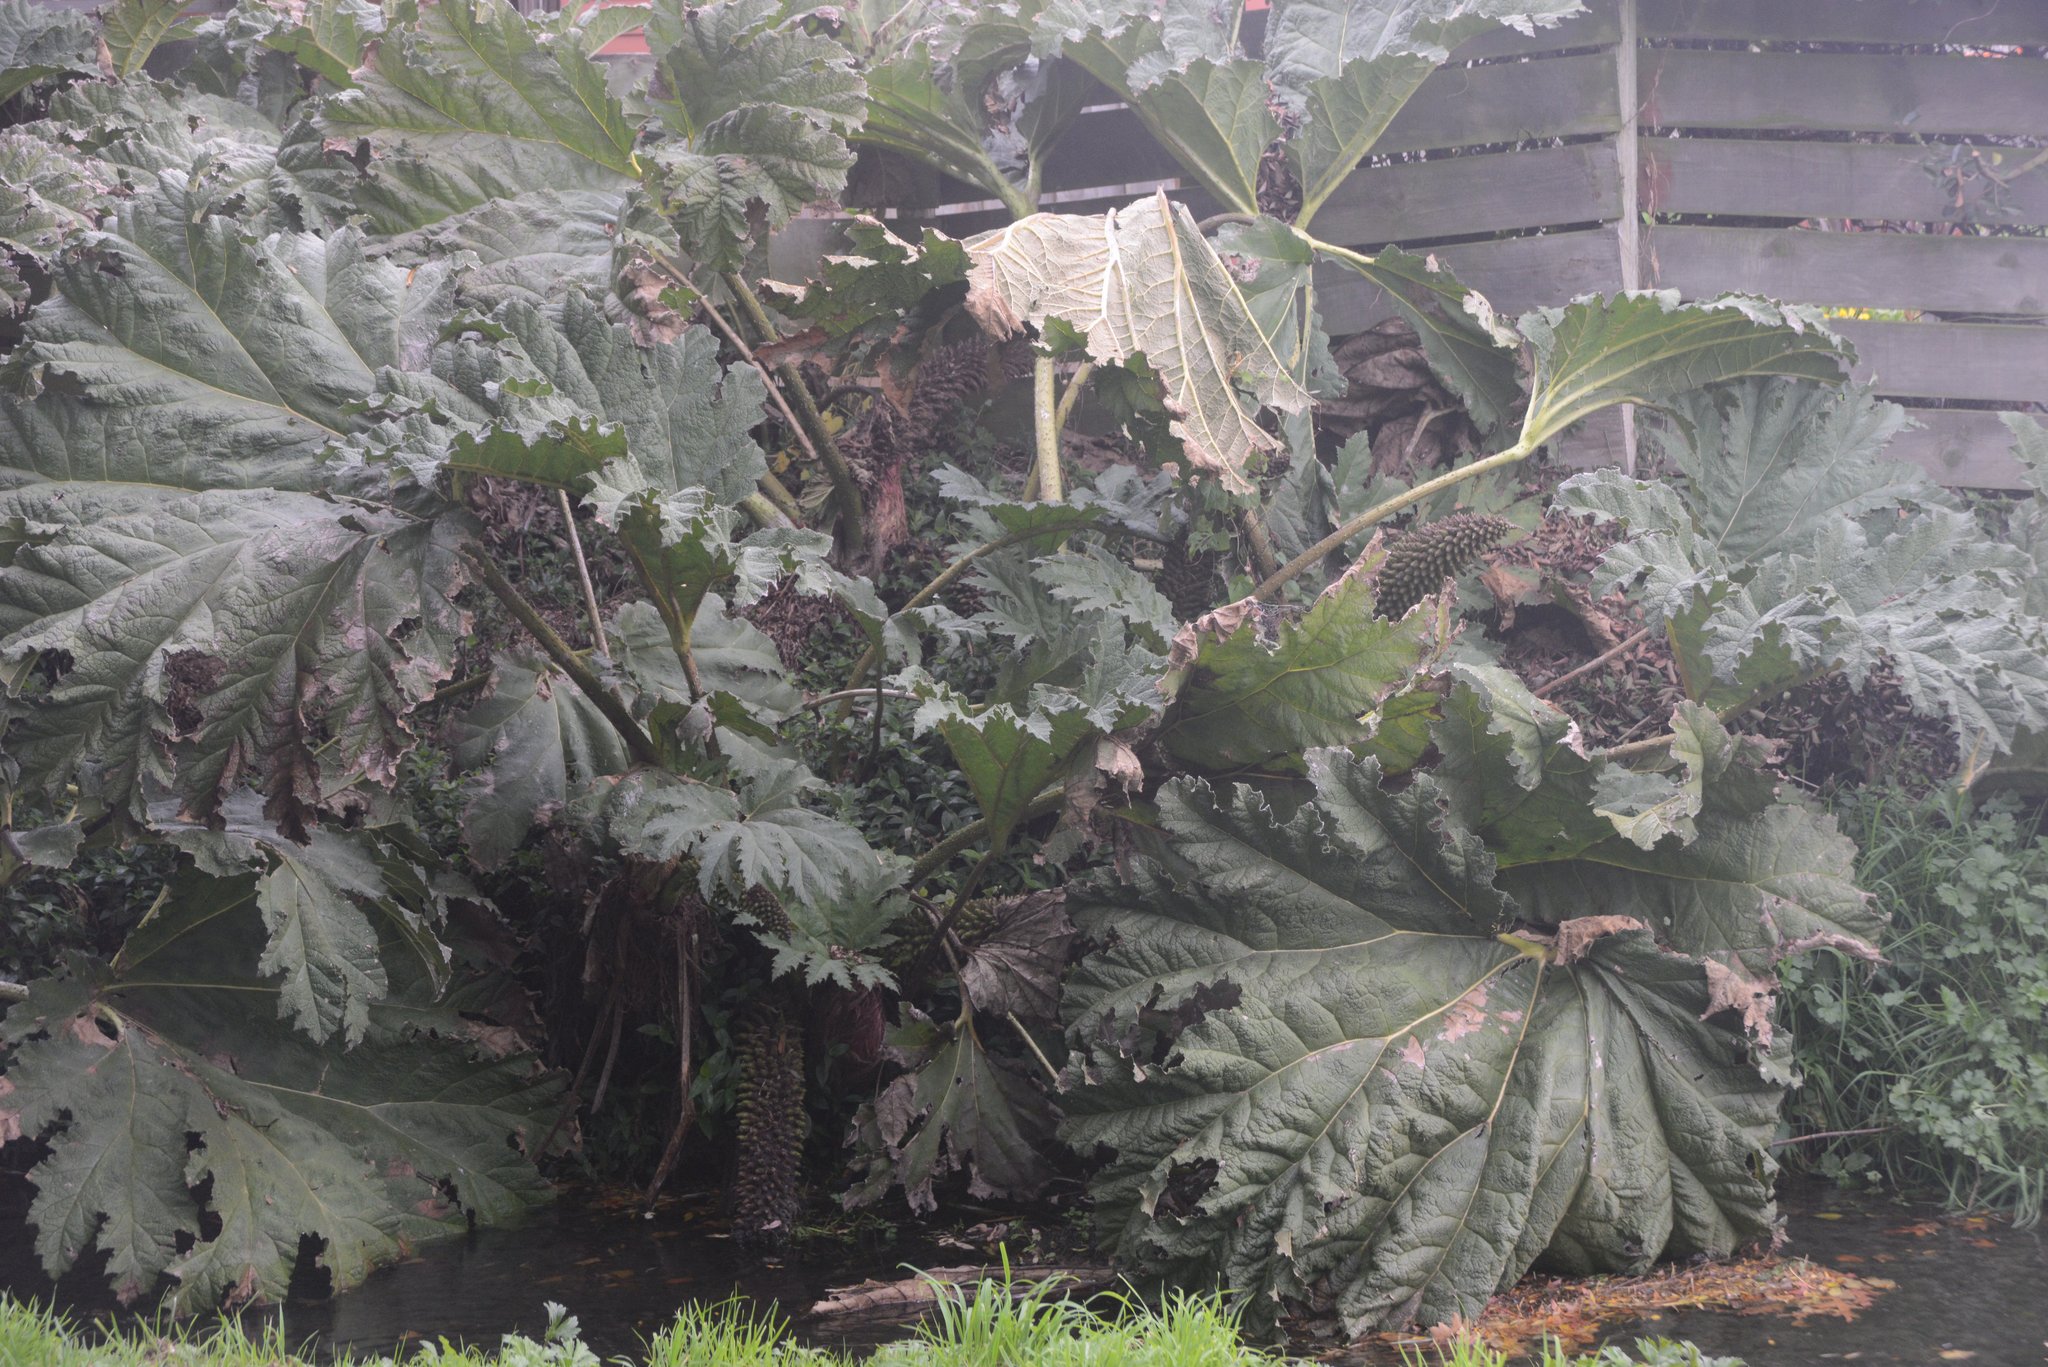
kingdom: Plantae
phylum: Tracheophyta
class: Magnoliopsida
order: Gunnerales
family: Gunneraceae
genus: Gunnera
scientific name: Gunnera tinctoria
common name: Giant-rhubarb
